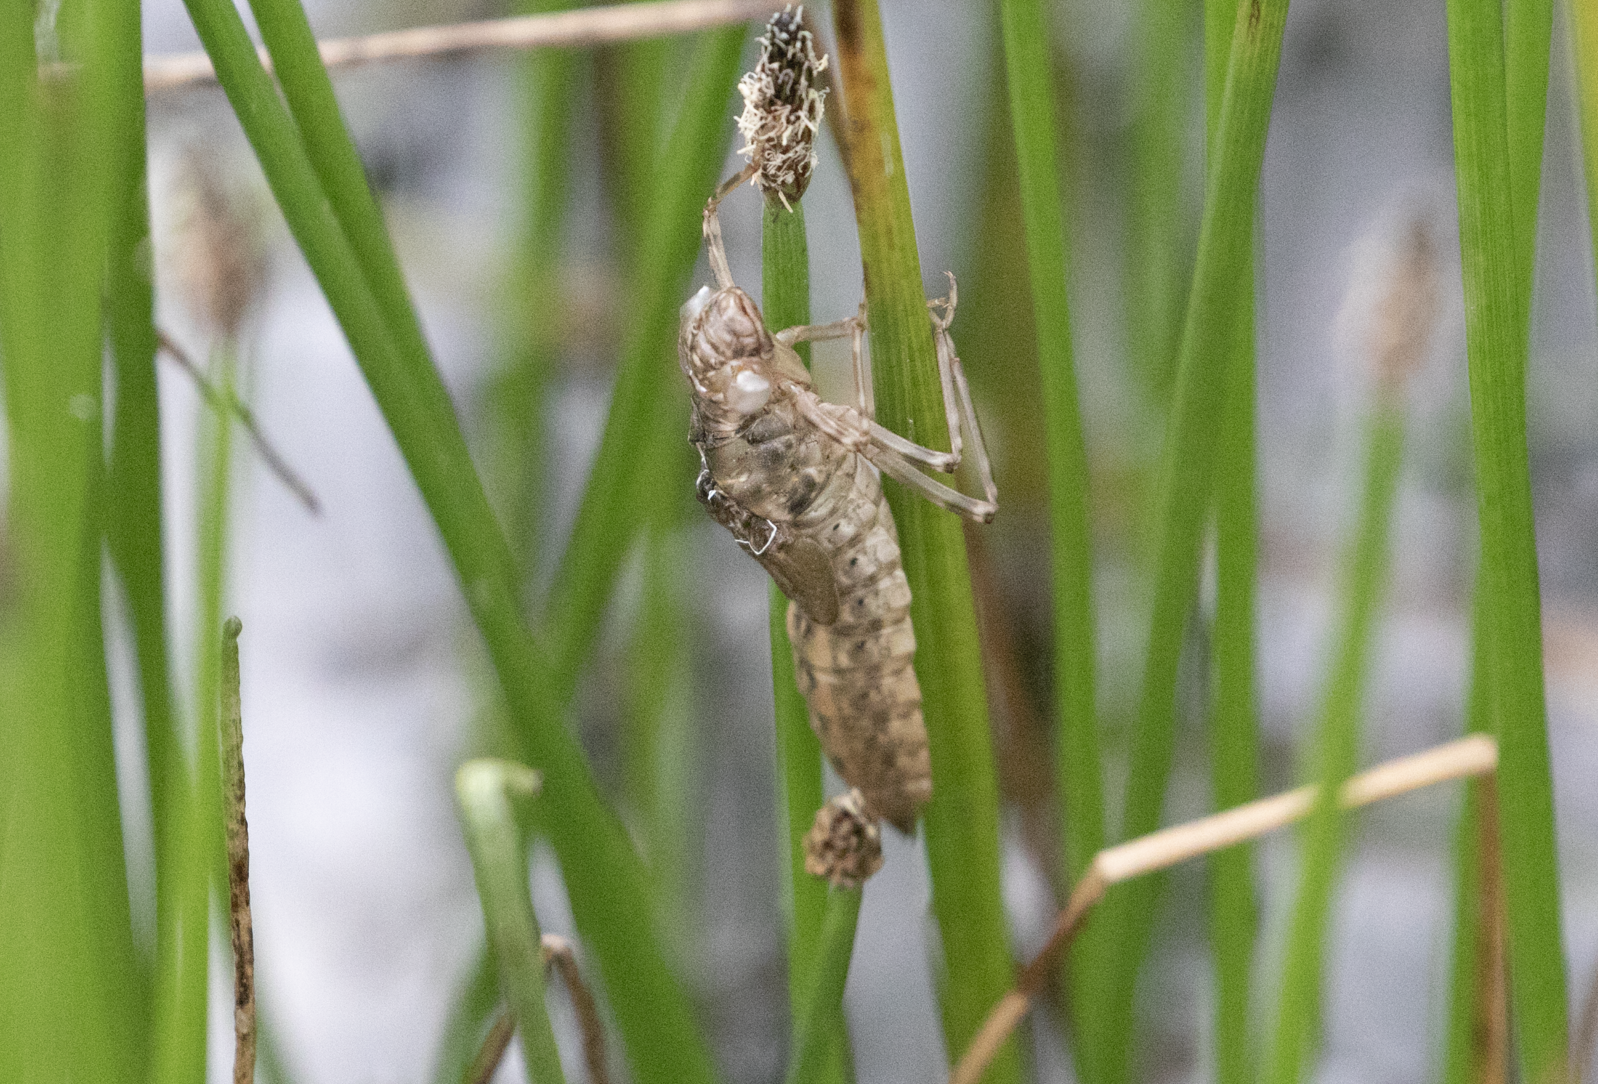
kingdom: Animalia
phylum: Arthropoda
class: Insecta
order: Odonata
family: Aeshnidae
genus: Aeshna
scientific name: Aeshna cyanea
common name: Southern hawker
